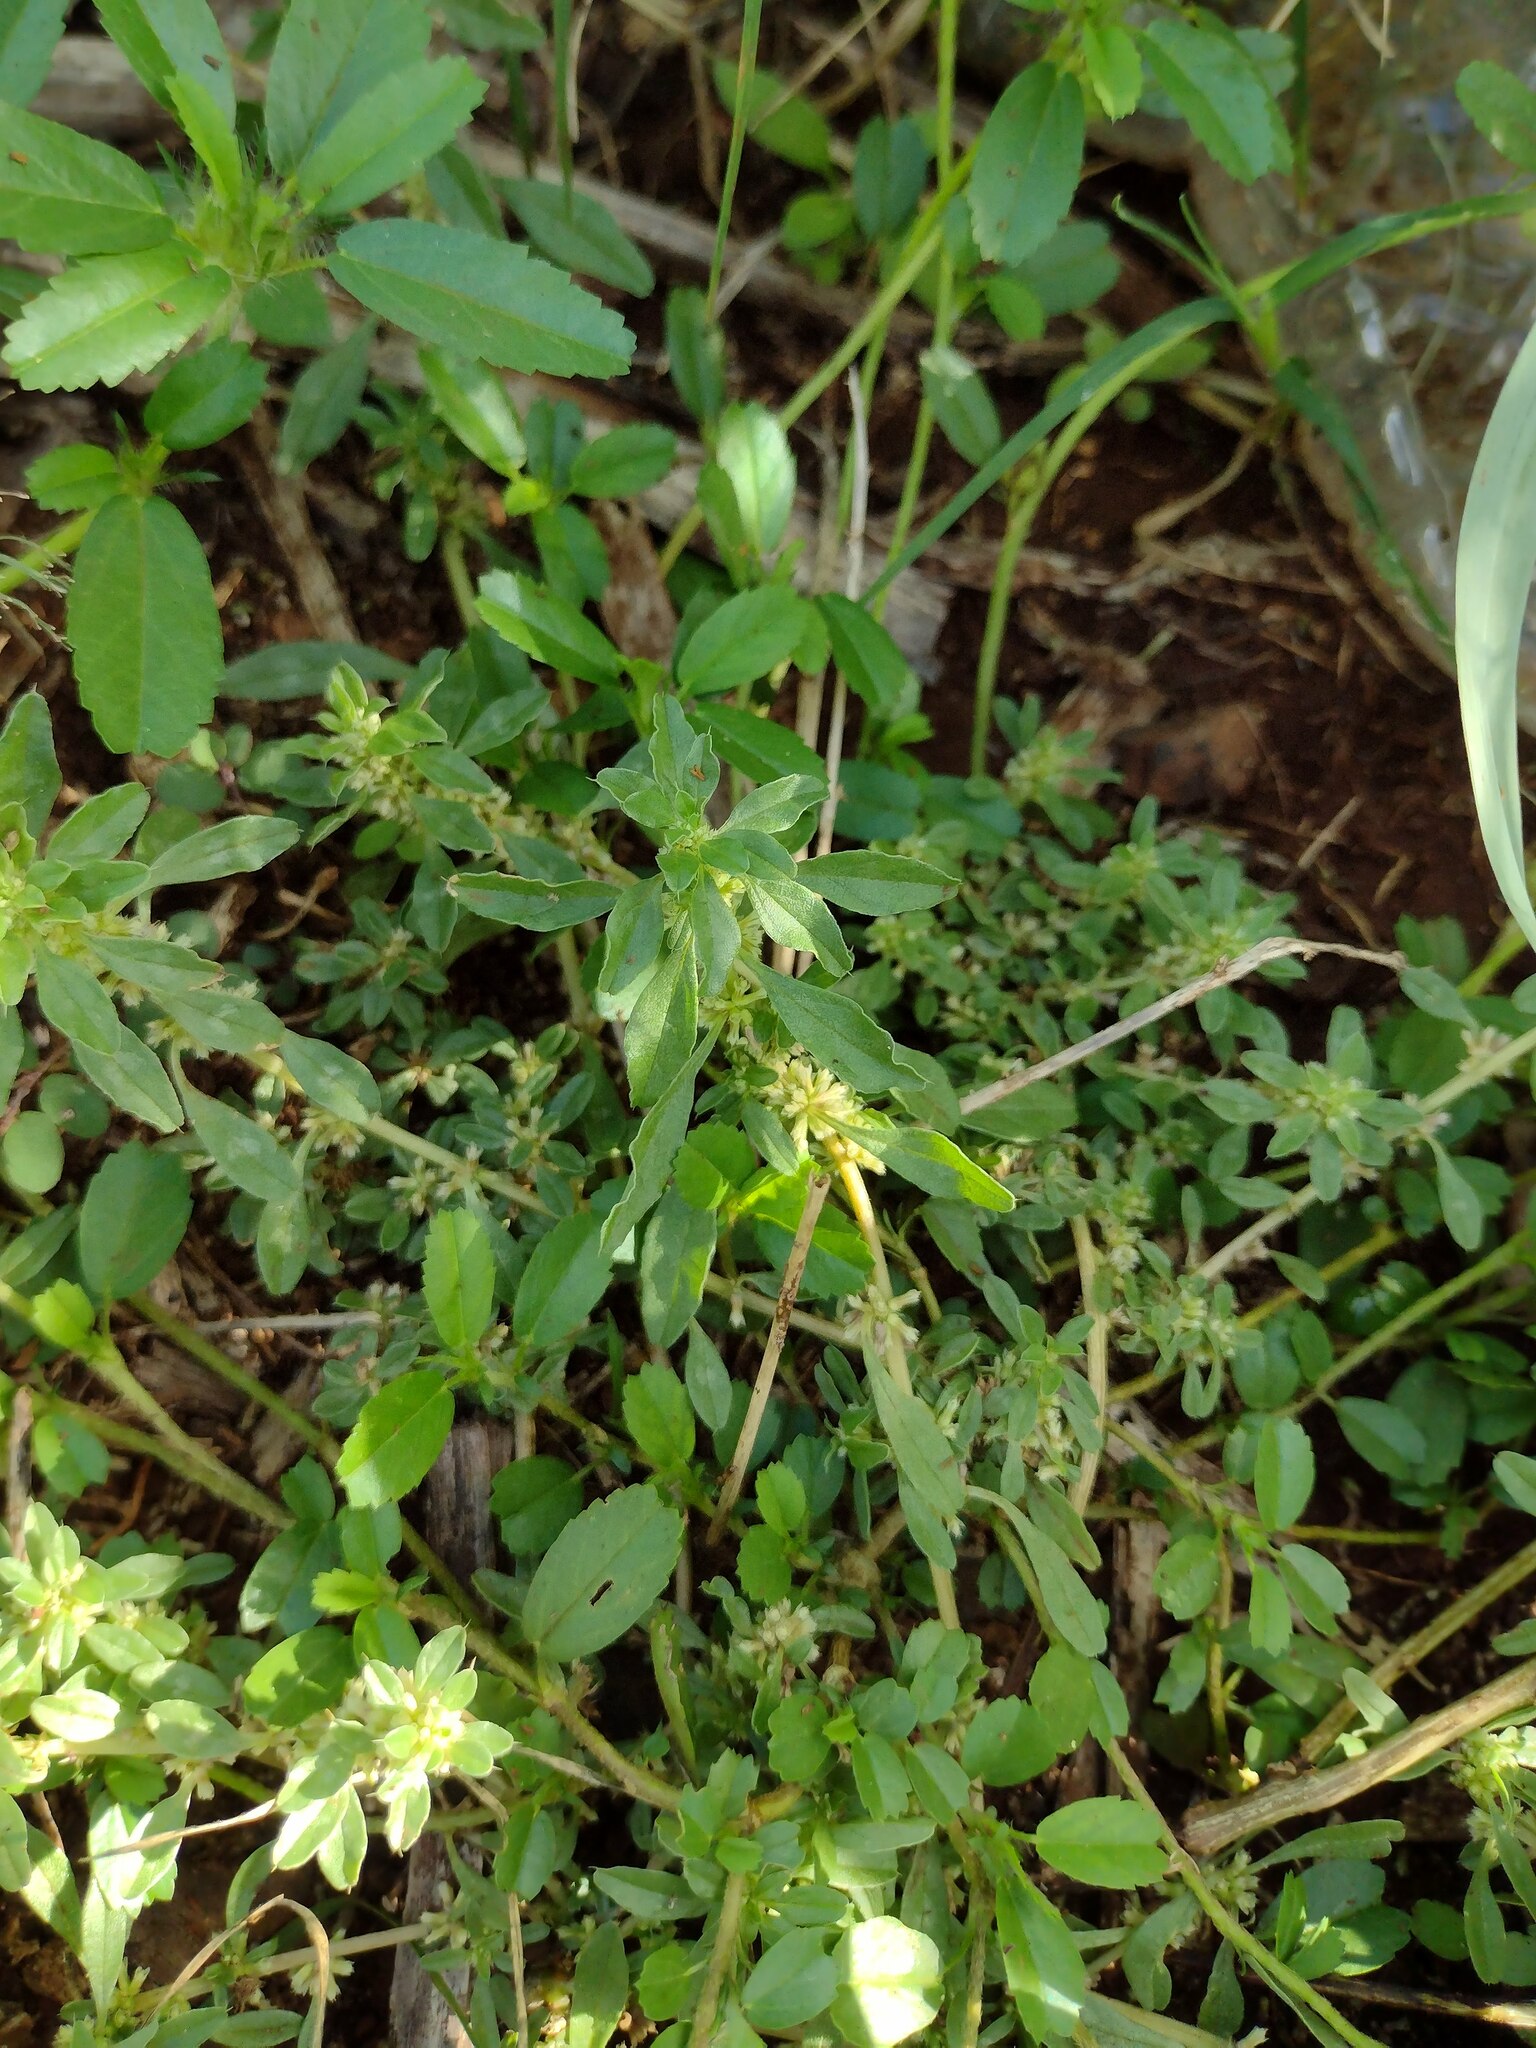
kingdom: Plantae
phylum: Tracheophyta
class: Magnoliopsida
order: Caryophyllales
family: Amaranthaceae
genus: Amaranthus
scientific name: Amaranthus polygonoides
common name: Tropical amaranth
